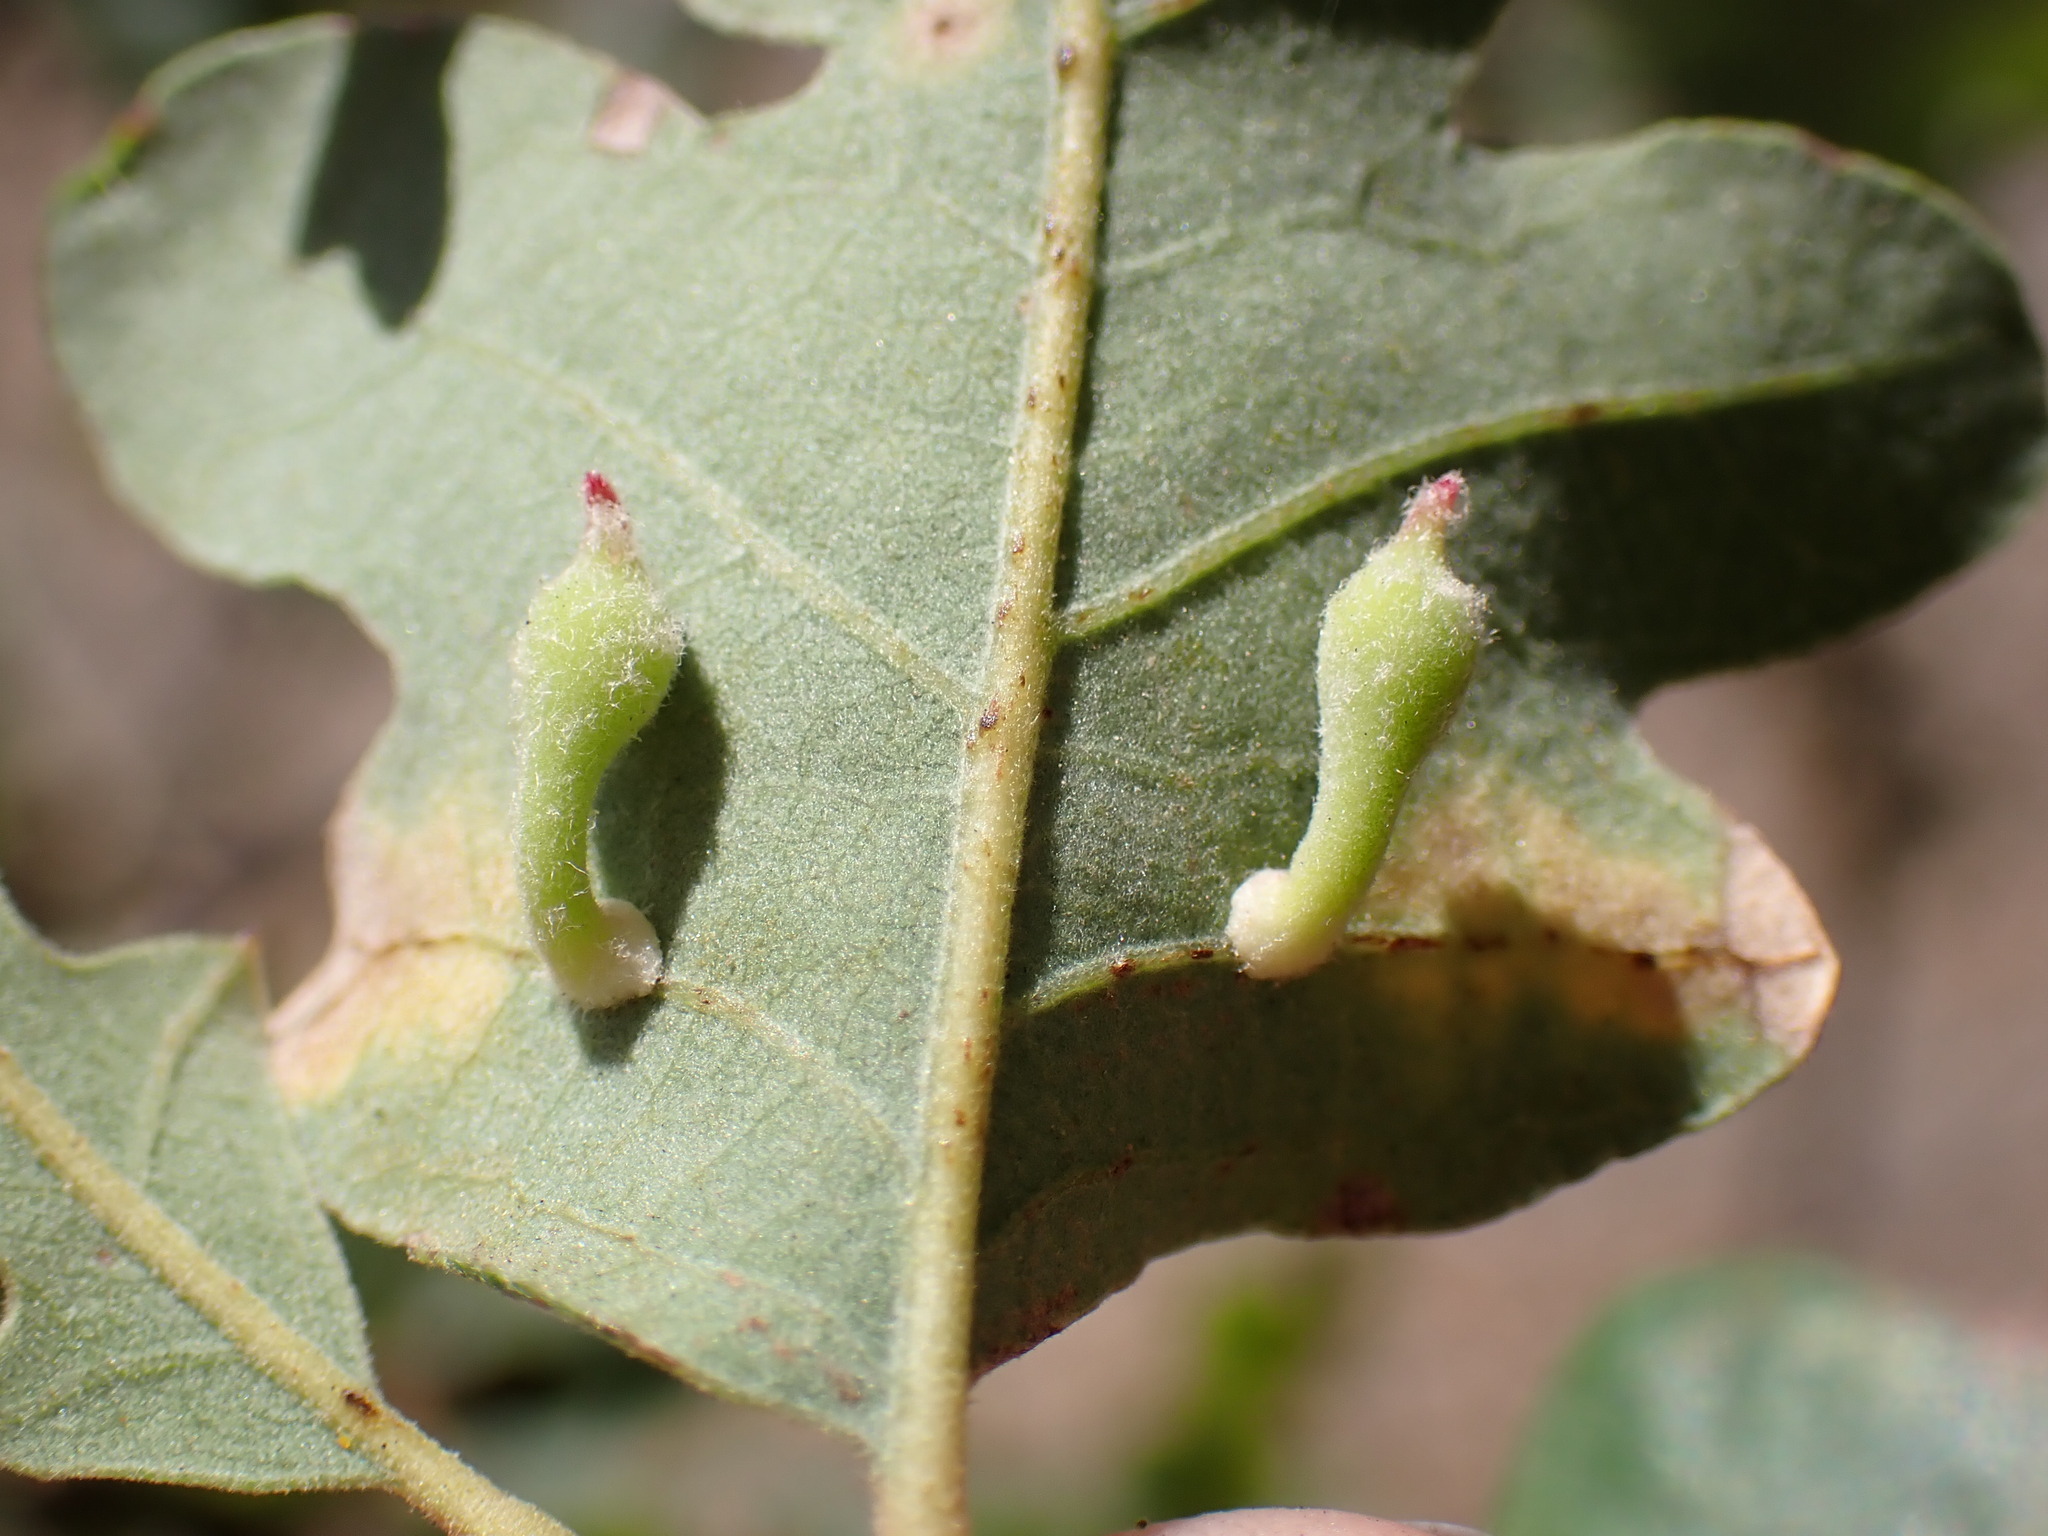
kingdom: Animalia
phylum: Arthropoda
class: Insecta
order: Hymenoptera
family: Cynipidae
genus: Atrusca
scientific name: Atrusca
